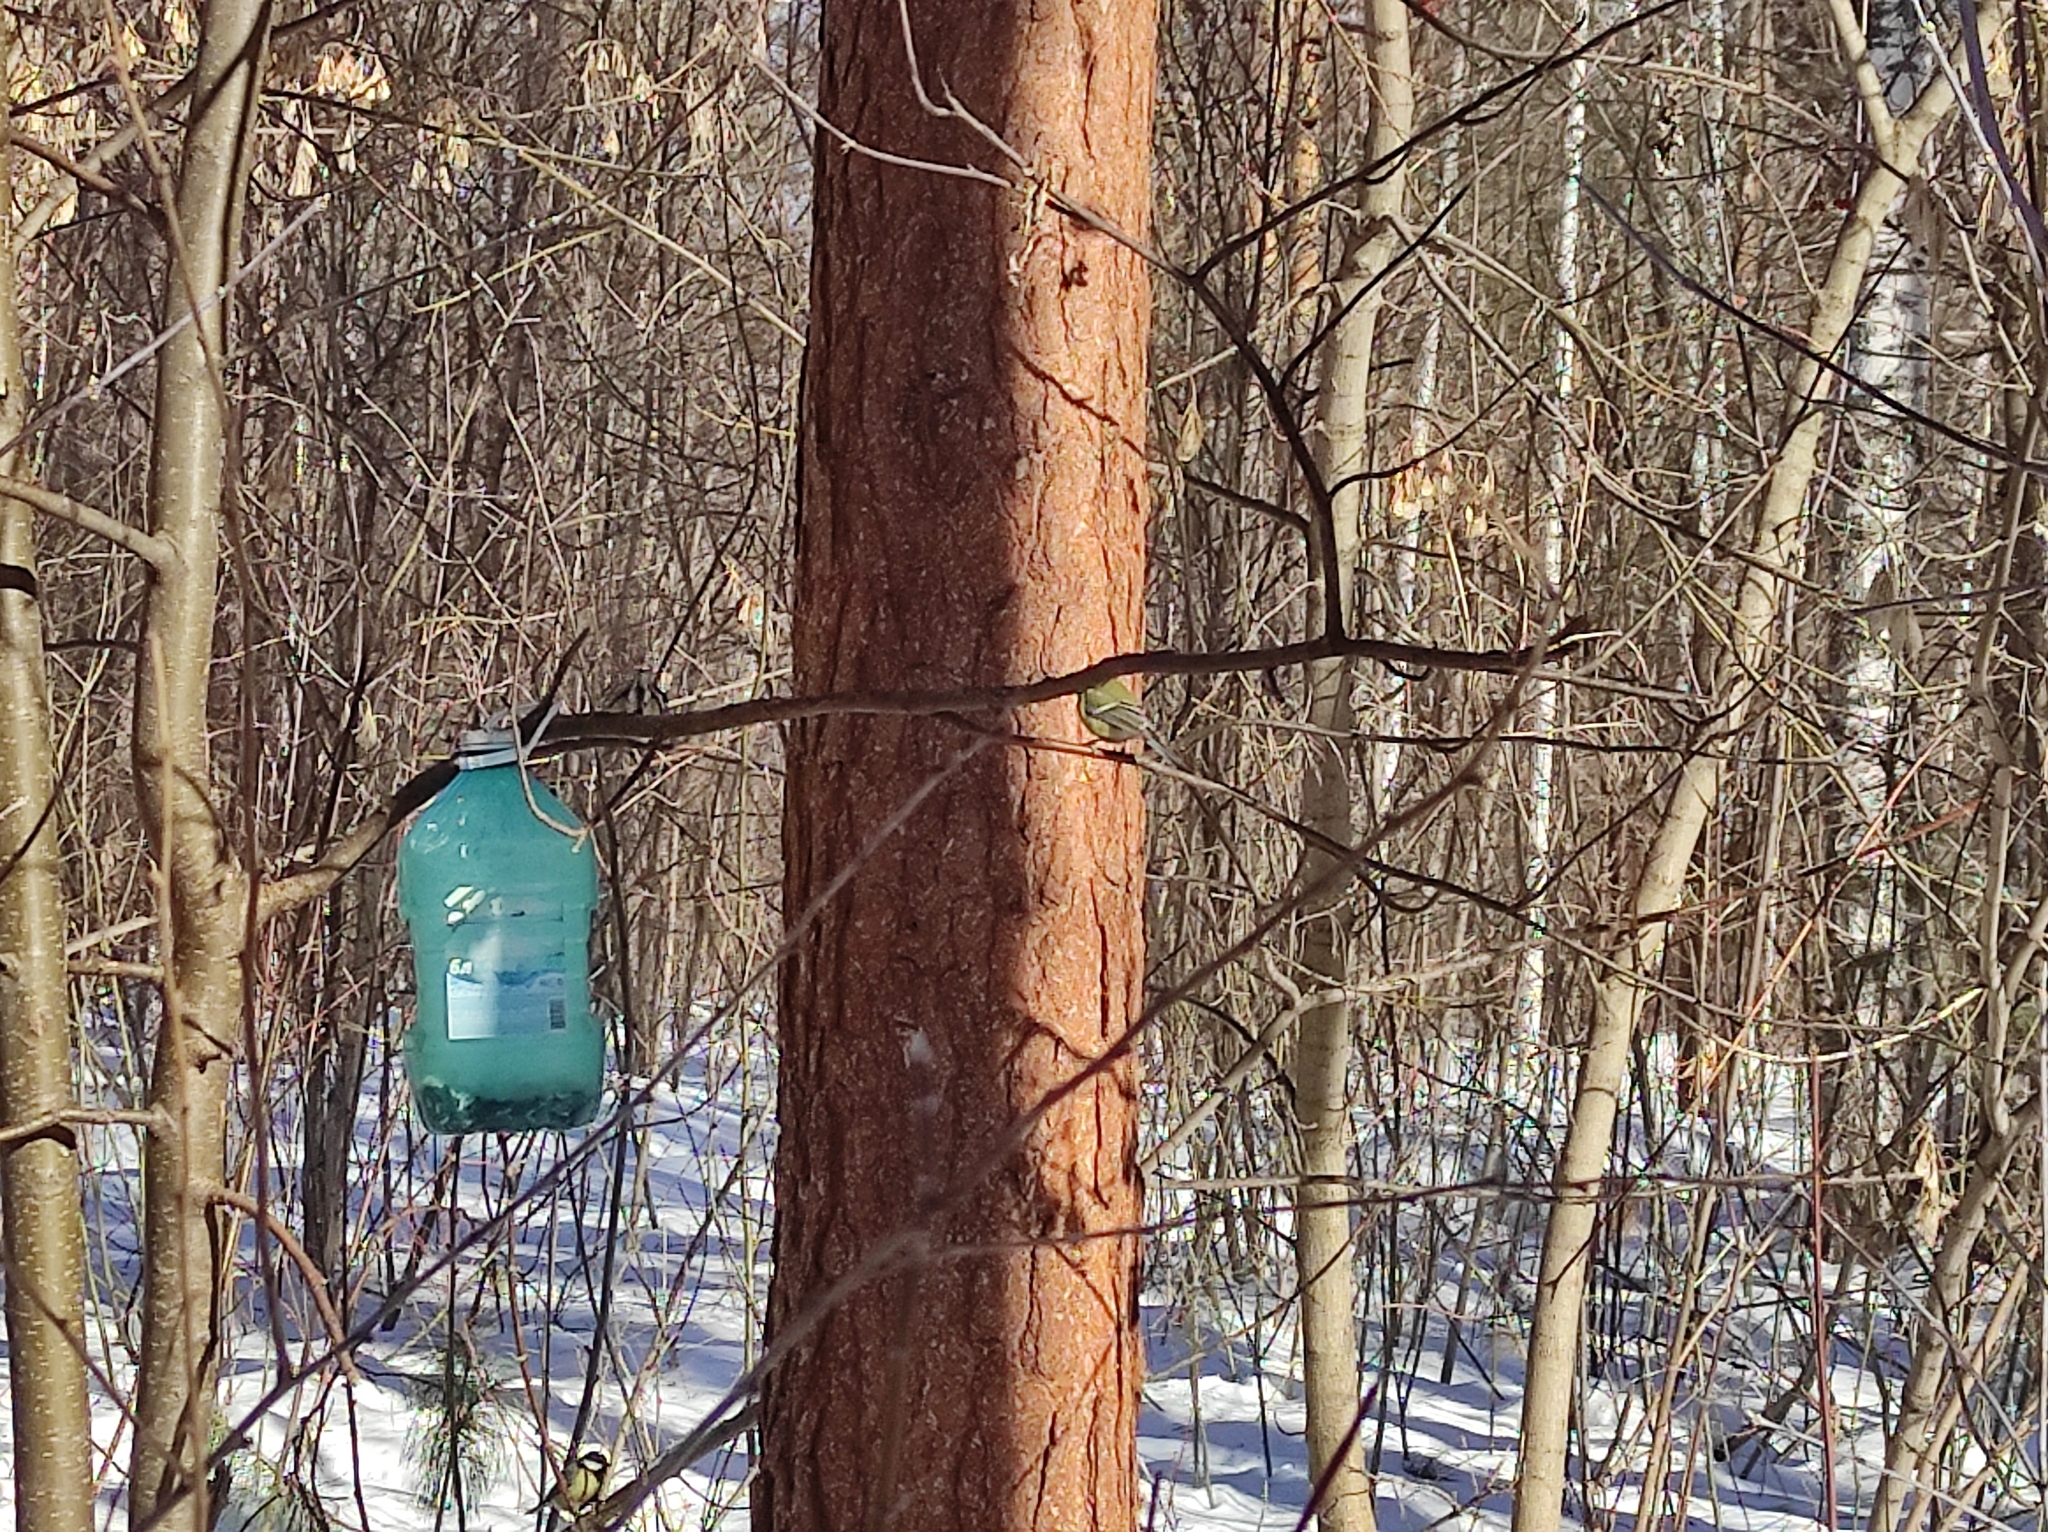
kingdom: Animalia
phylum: Chordata
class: Aves
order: Passeriformes
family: Paridae
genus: Parus
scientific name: Parus major
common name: Great tit
